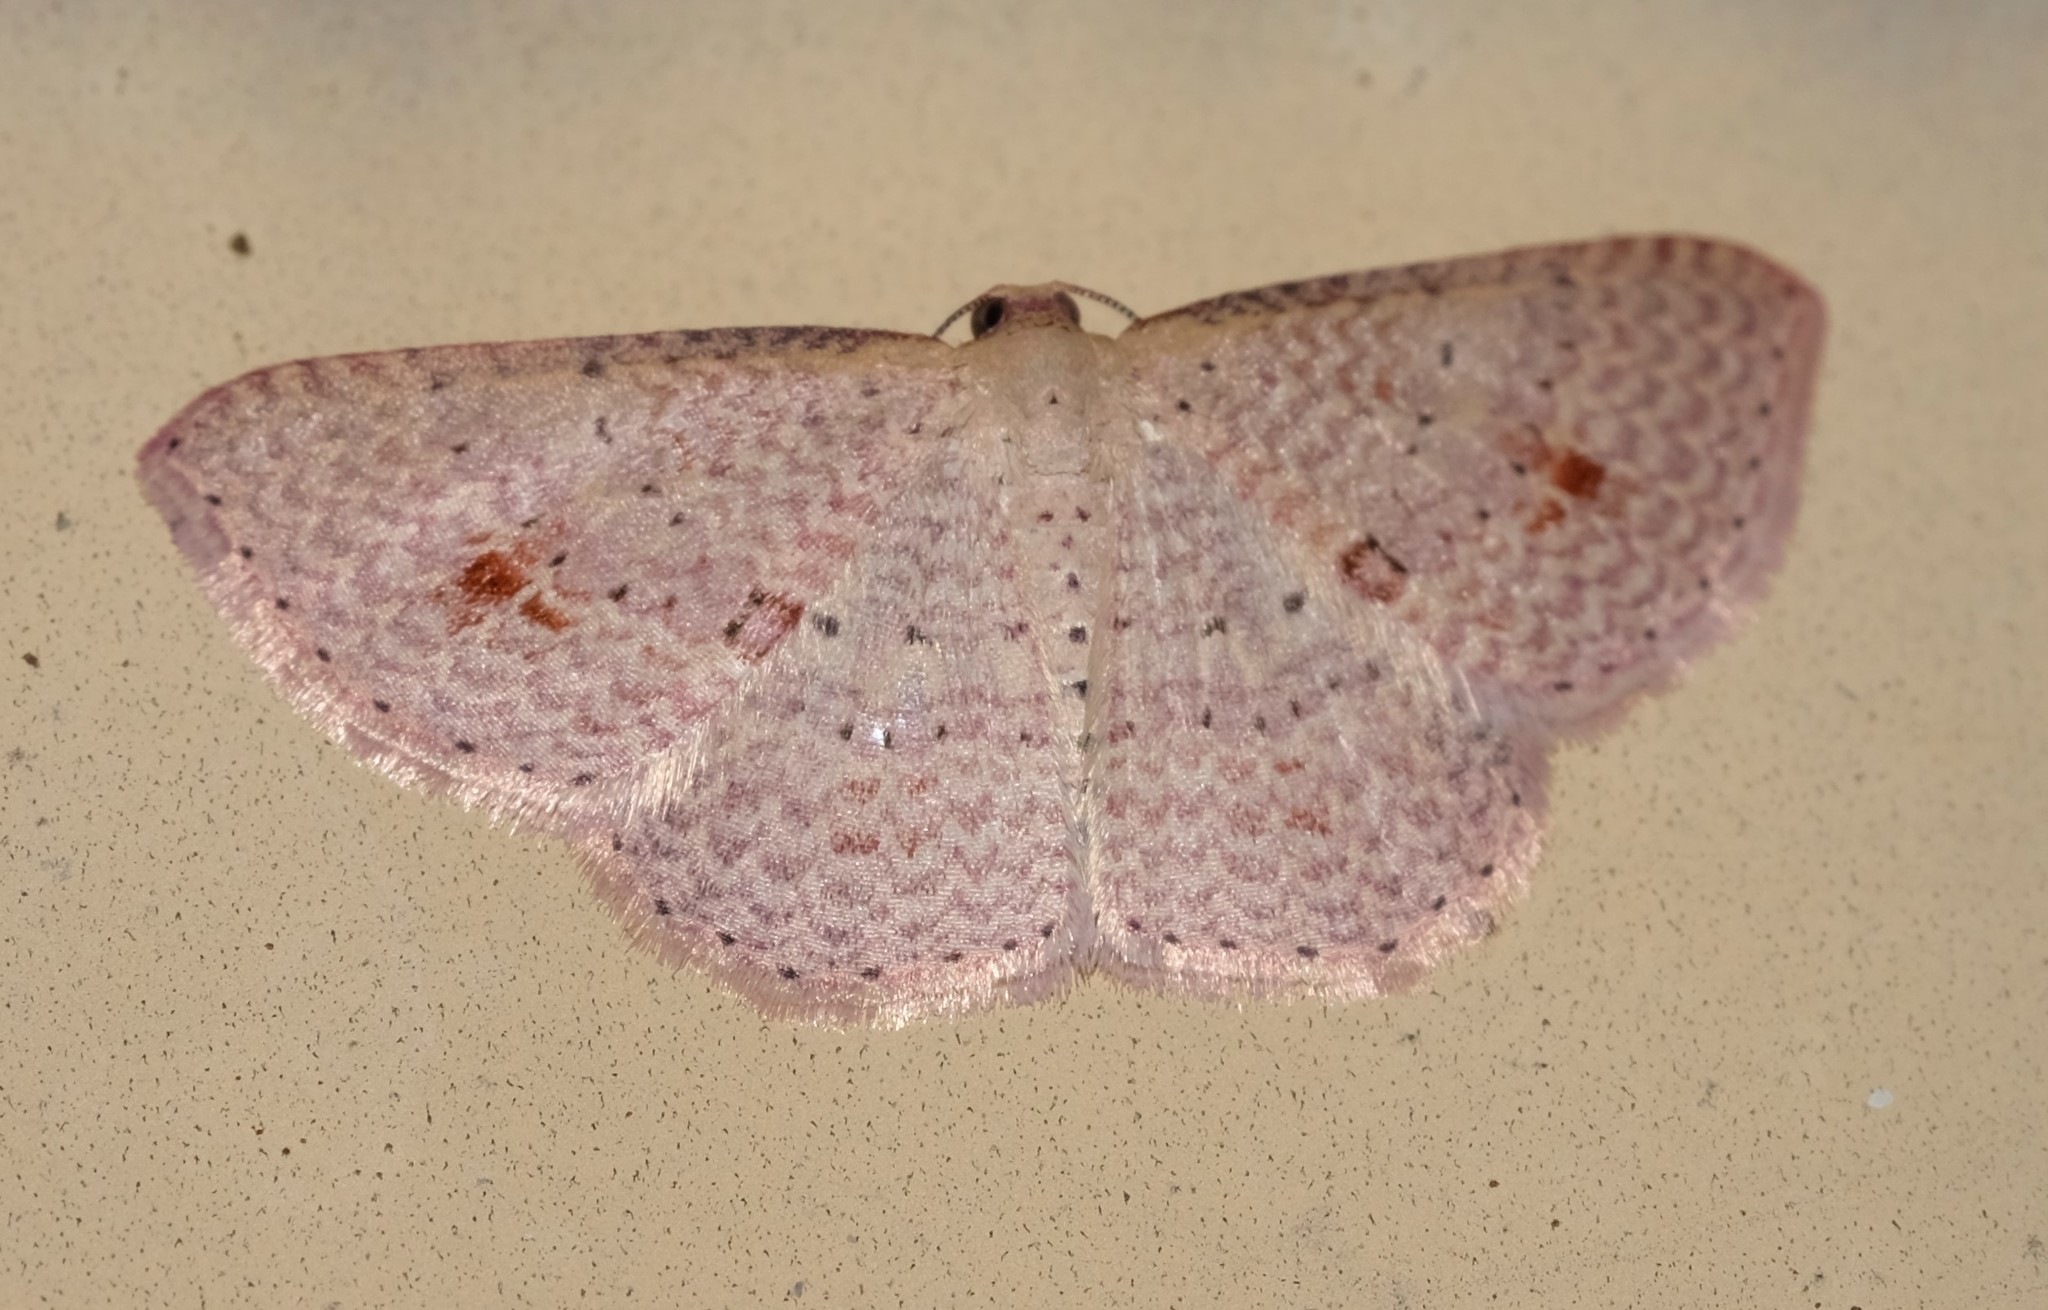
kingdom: Animalia
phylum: Arthropoda
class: Insecta
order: Lepidoptera
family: Geometridae
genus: Epicyme
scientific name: Epicyme rubropunctaria
